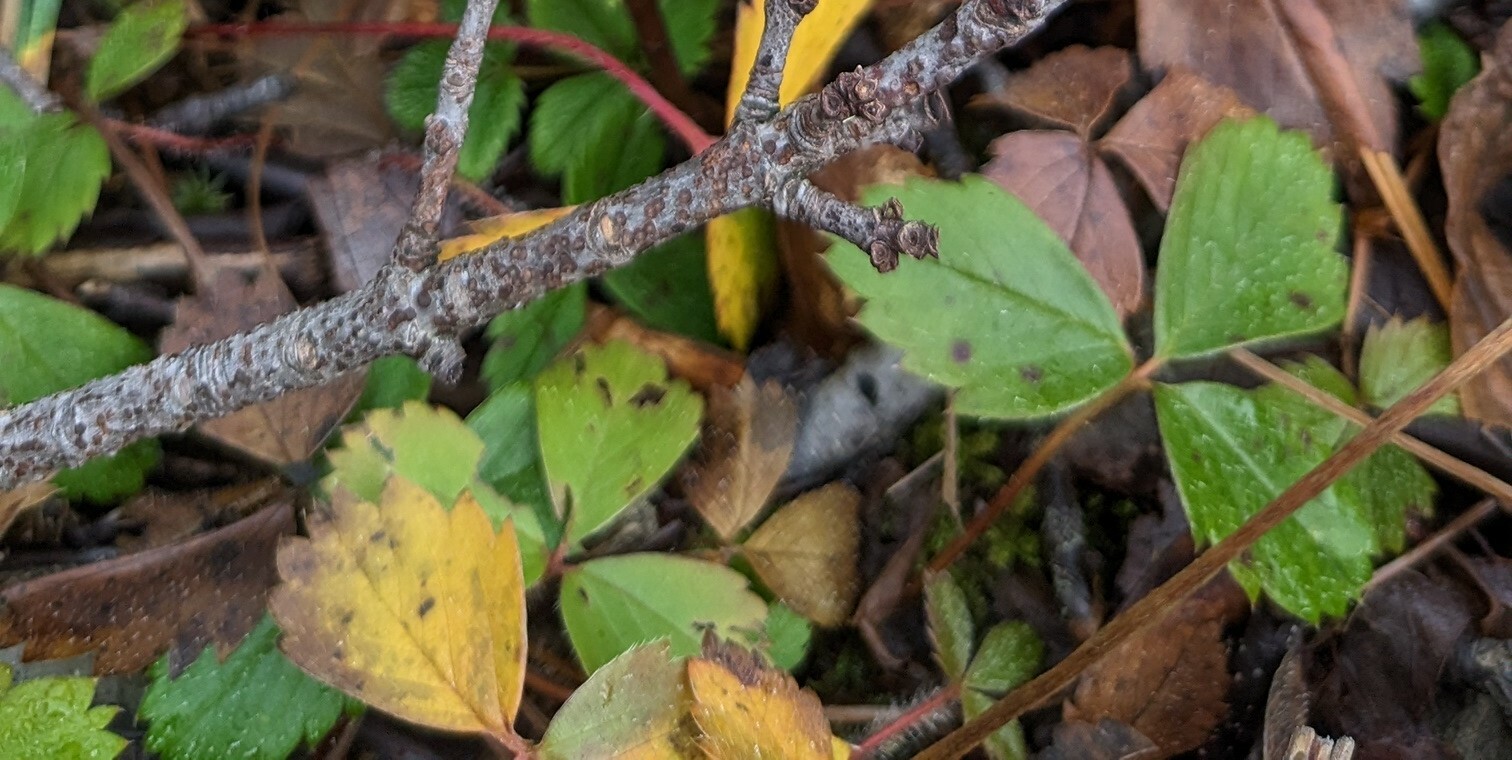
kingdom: Plantae
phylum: Tracheophyta
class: Magnoliopsida
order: Rosales
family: Rosaceae
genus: Fragaria
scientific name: Fragaria virginiana
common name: Thickleaved wild strawberry
